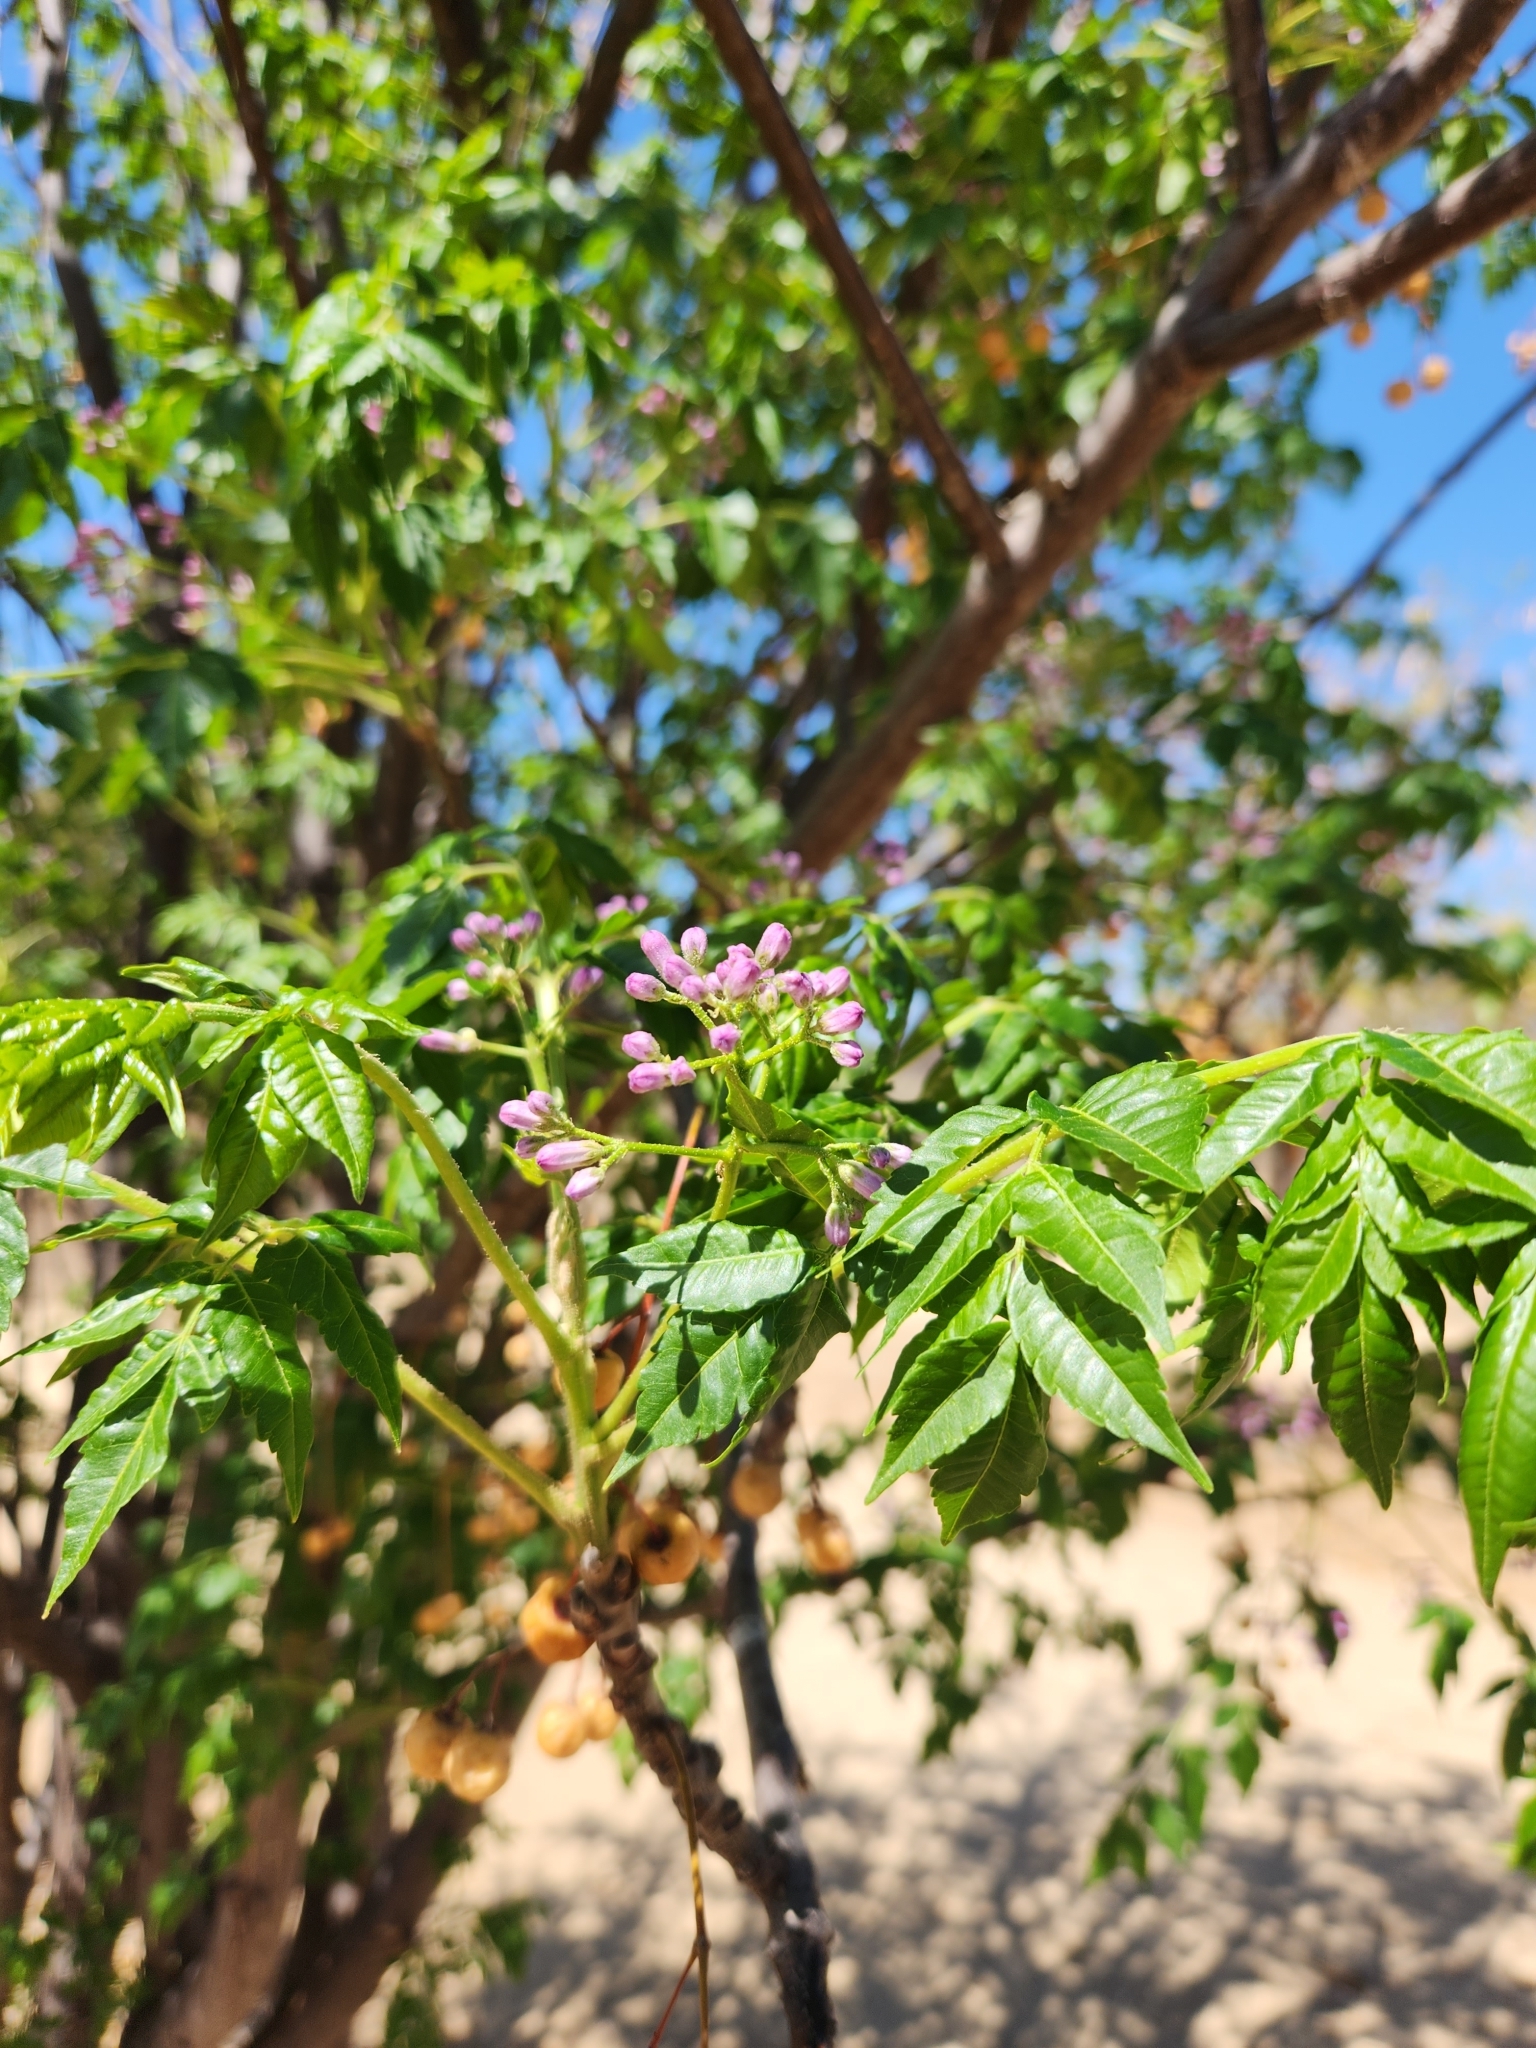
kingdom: Plantae
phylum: Tracheophyta
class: Magnoliopsida
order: Sapindales
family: Meliaceae
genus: Melia
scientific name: Melia azedarach
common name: Chinaberrytree
